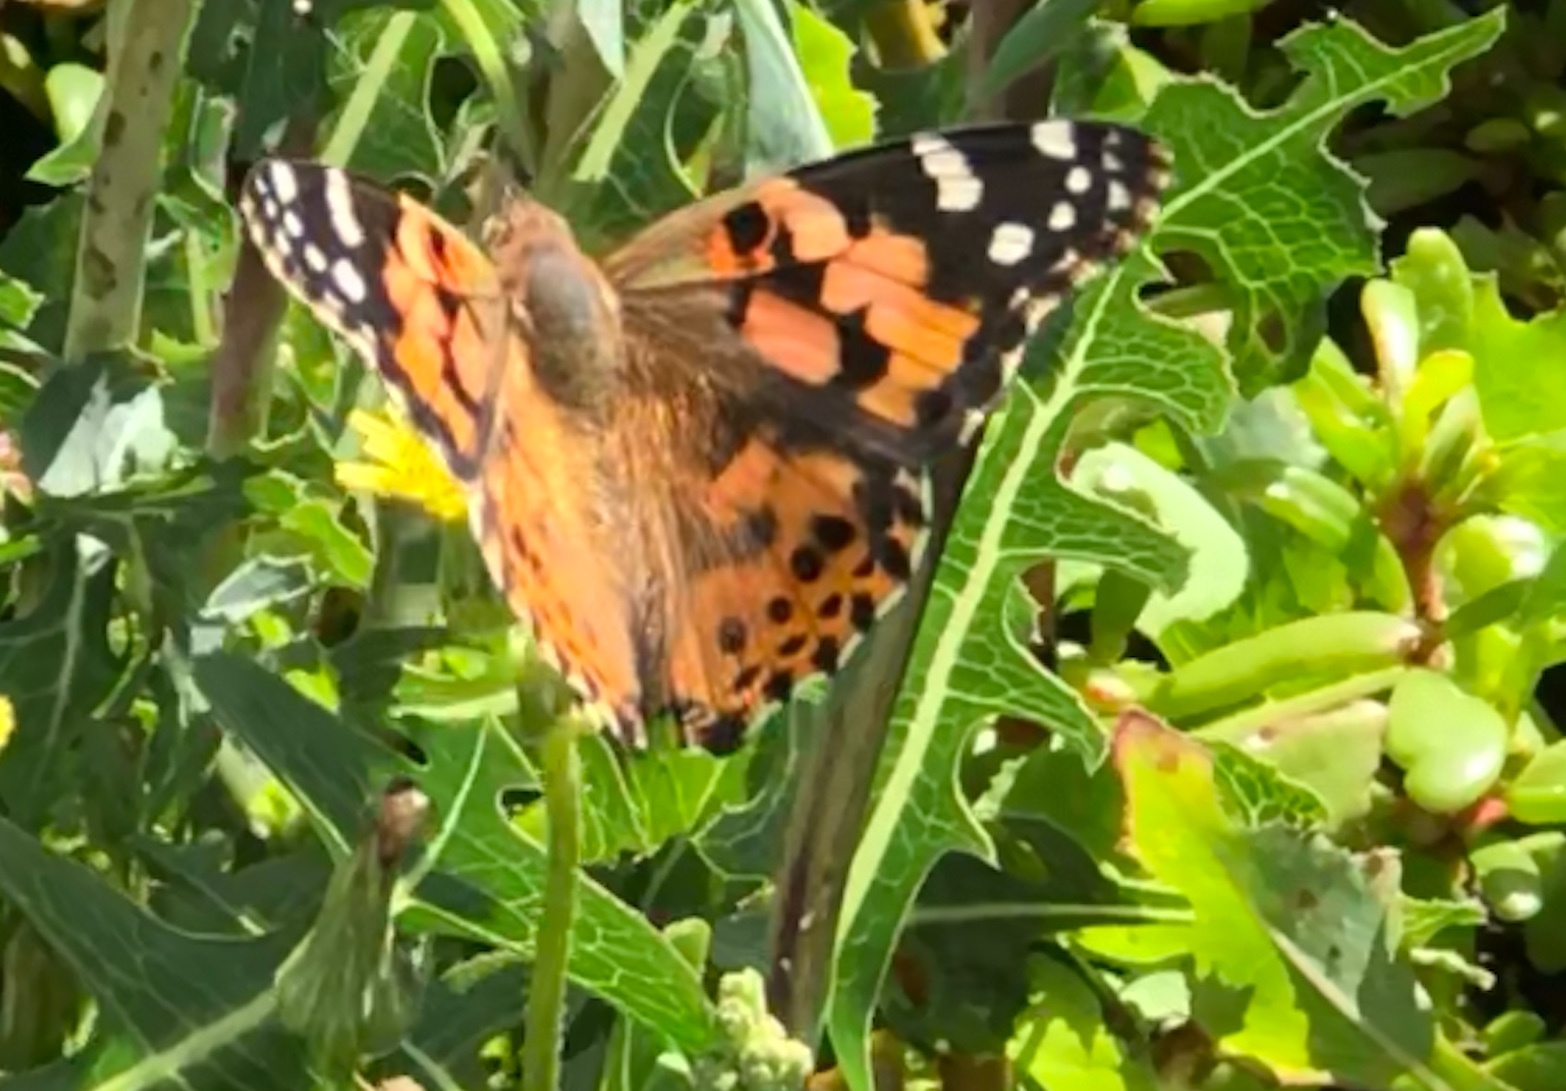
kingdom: Animalia
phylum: Arthropoda
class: Insecta
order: Lepidoptera
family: Nymphalidae
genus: Vanessa
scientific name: Vanessa cardui
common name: Painted lady
